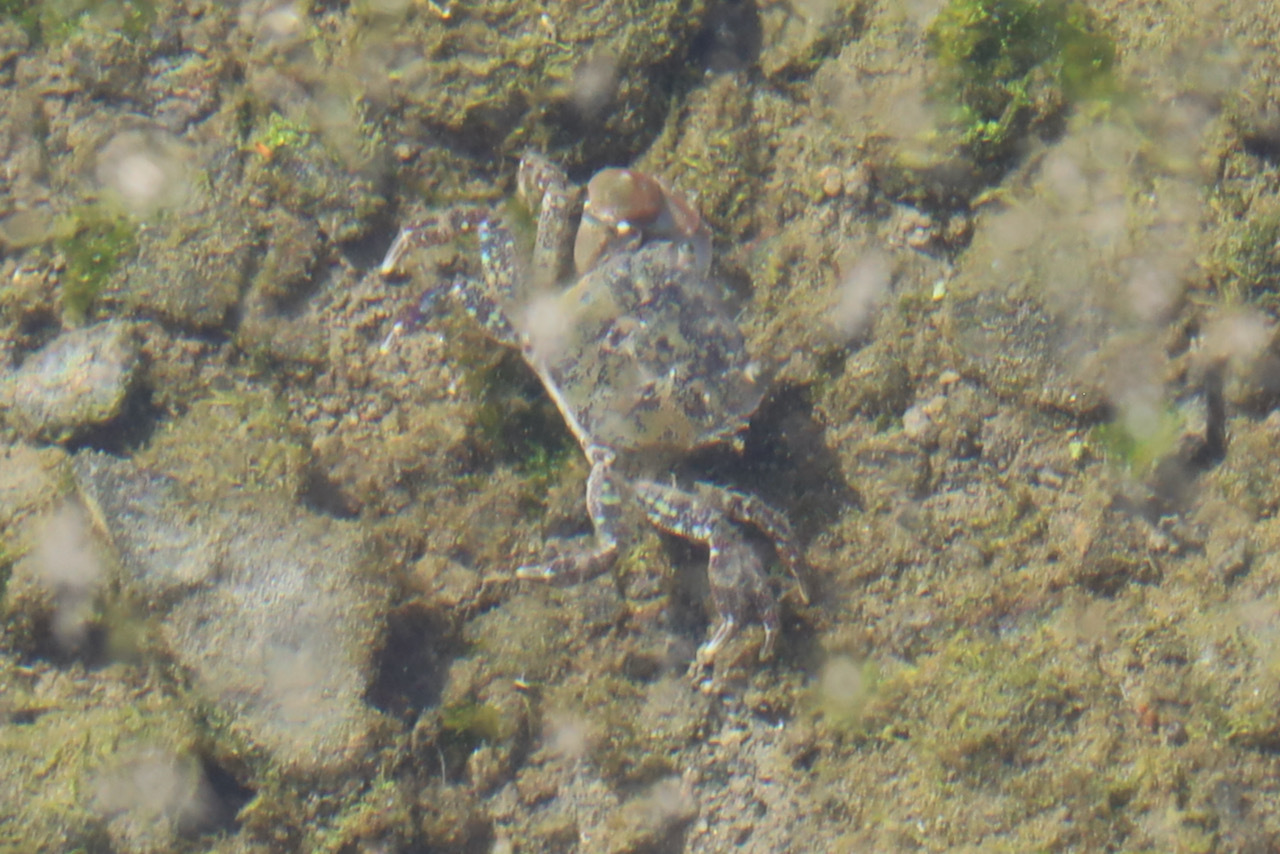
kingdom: Animalia
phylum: Arthropoda
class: Malacostraca
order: Decapoda
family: Varunidae
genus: Hemigrapsus
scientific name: Hemigrapsus oregonensis
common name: Yellow shore crab
